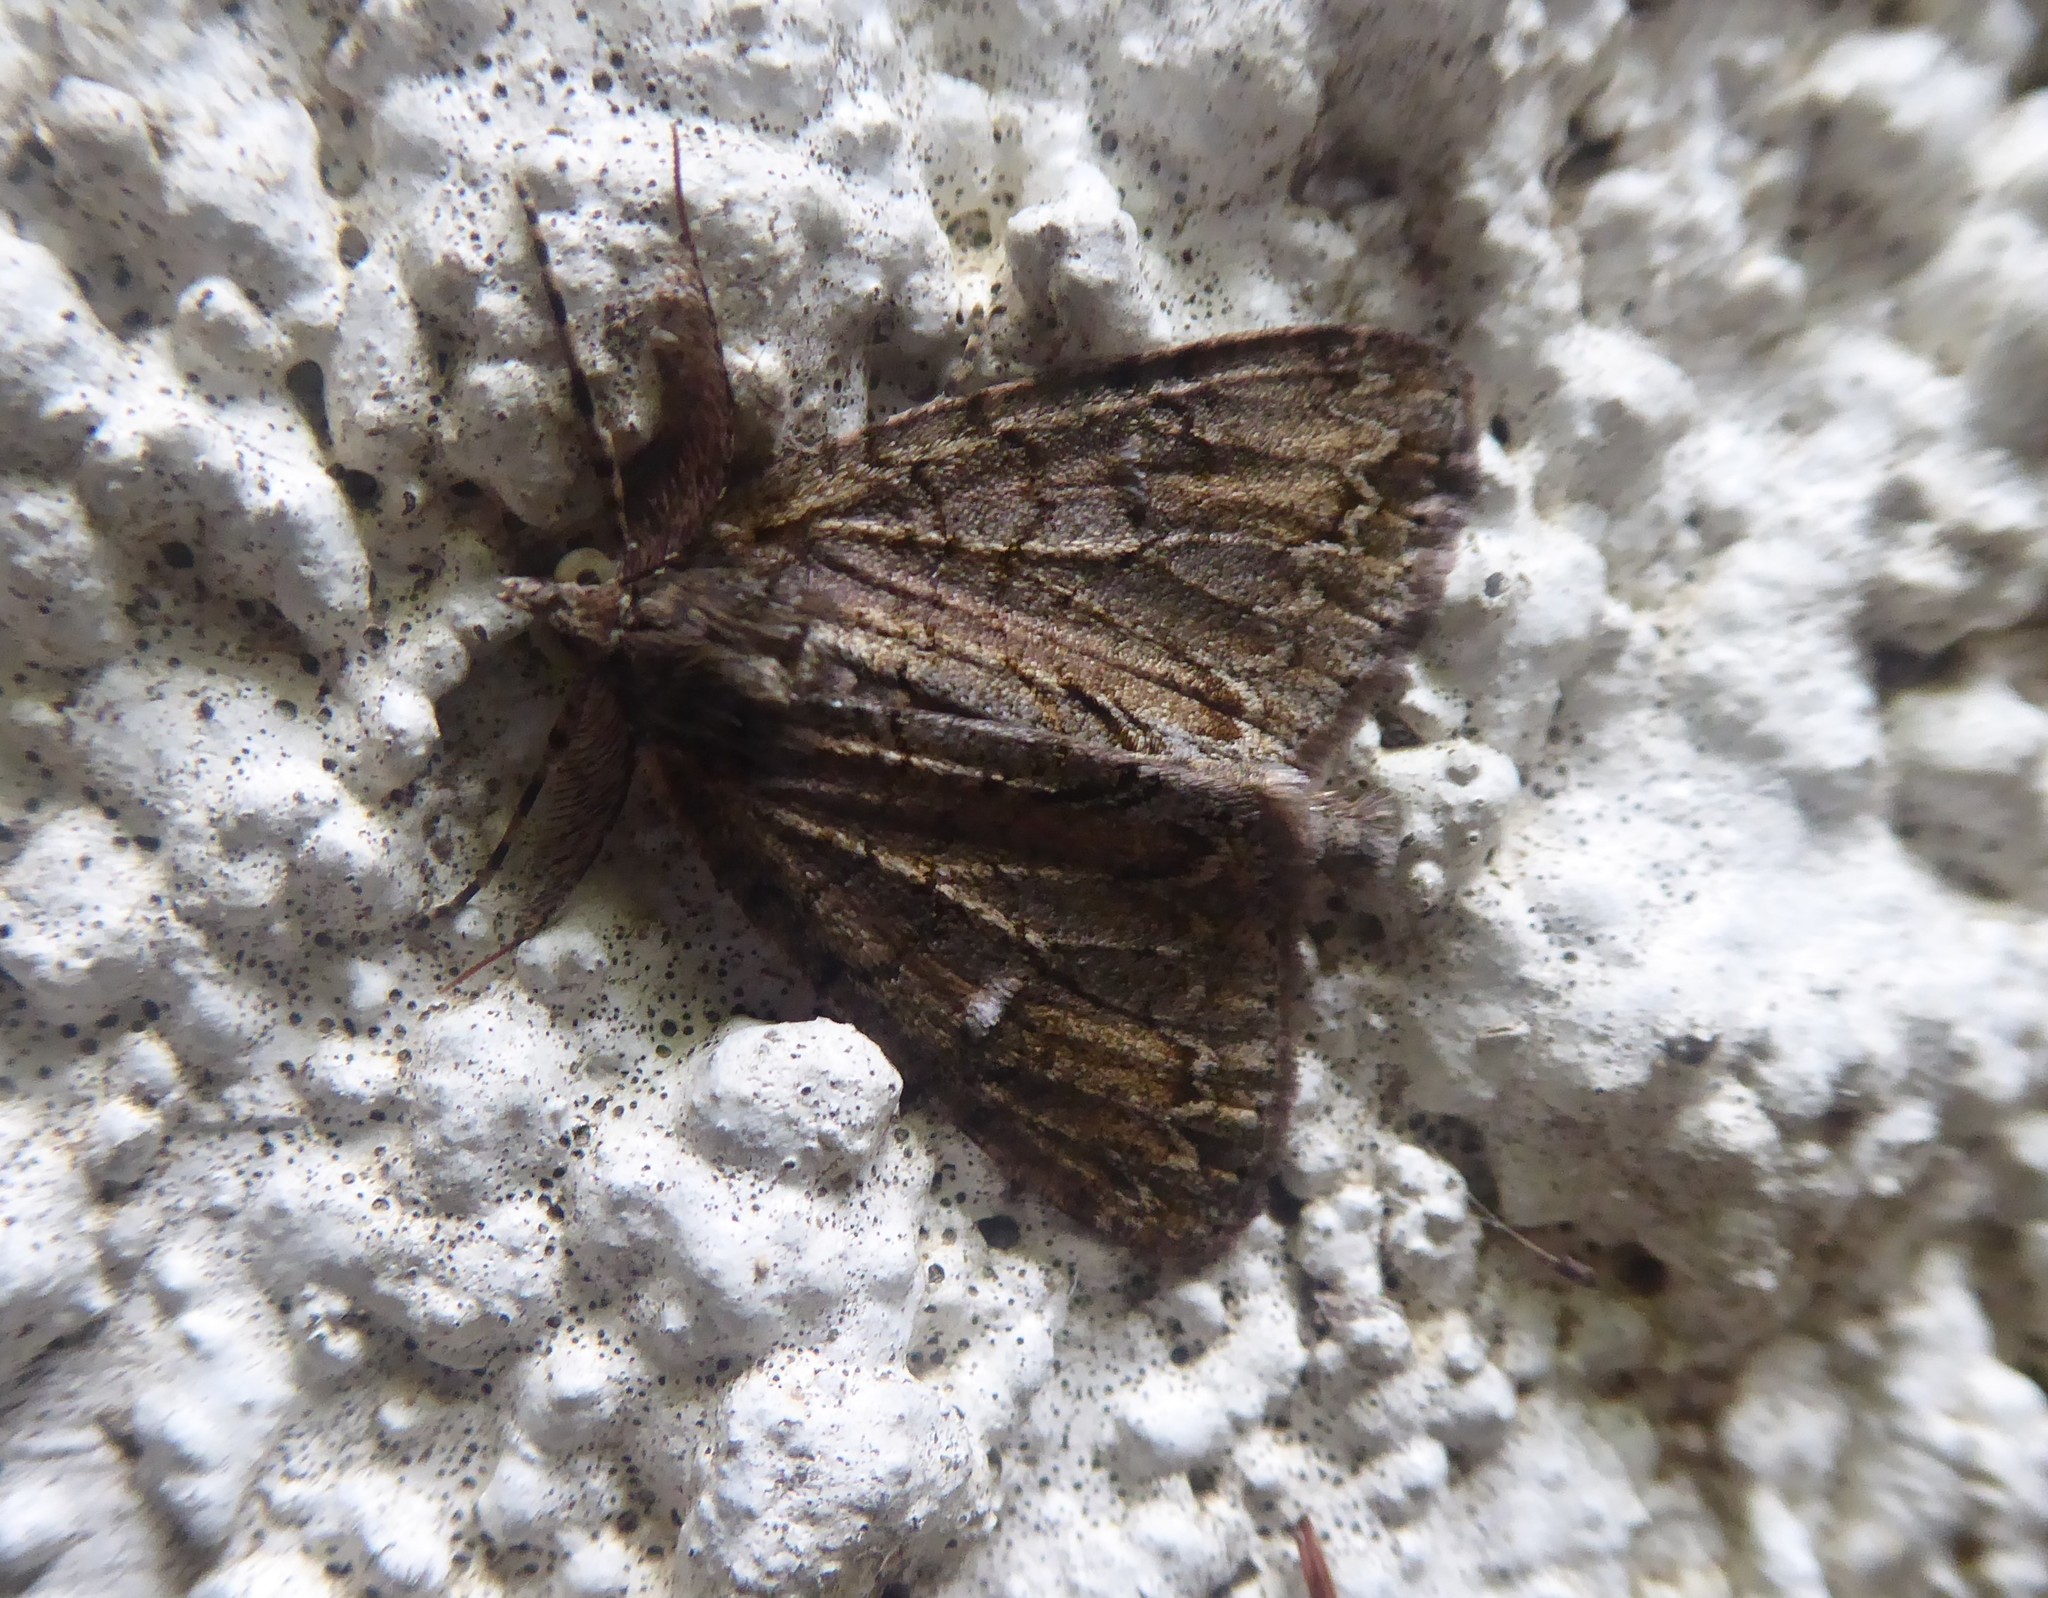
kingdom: Animalia
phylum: Arthropoda
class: Insecta
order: Lepidoptera
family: Geometridae
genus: Pseudocoremia
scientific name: Pseudocoremia suavis
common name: Common forest looper
